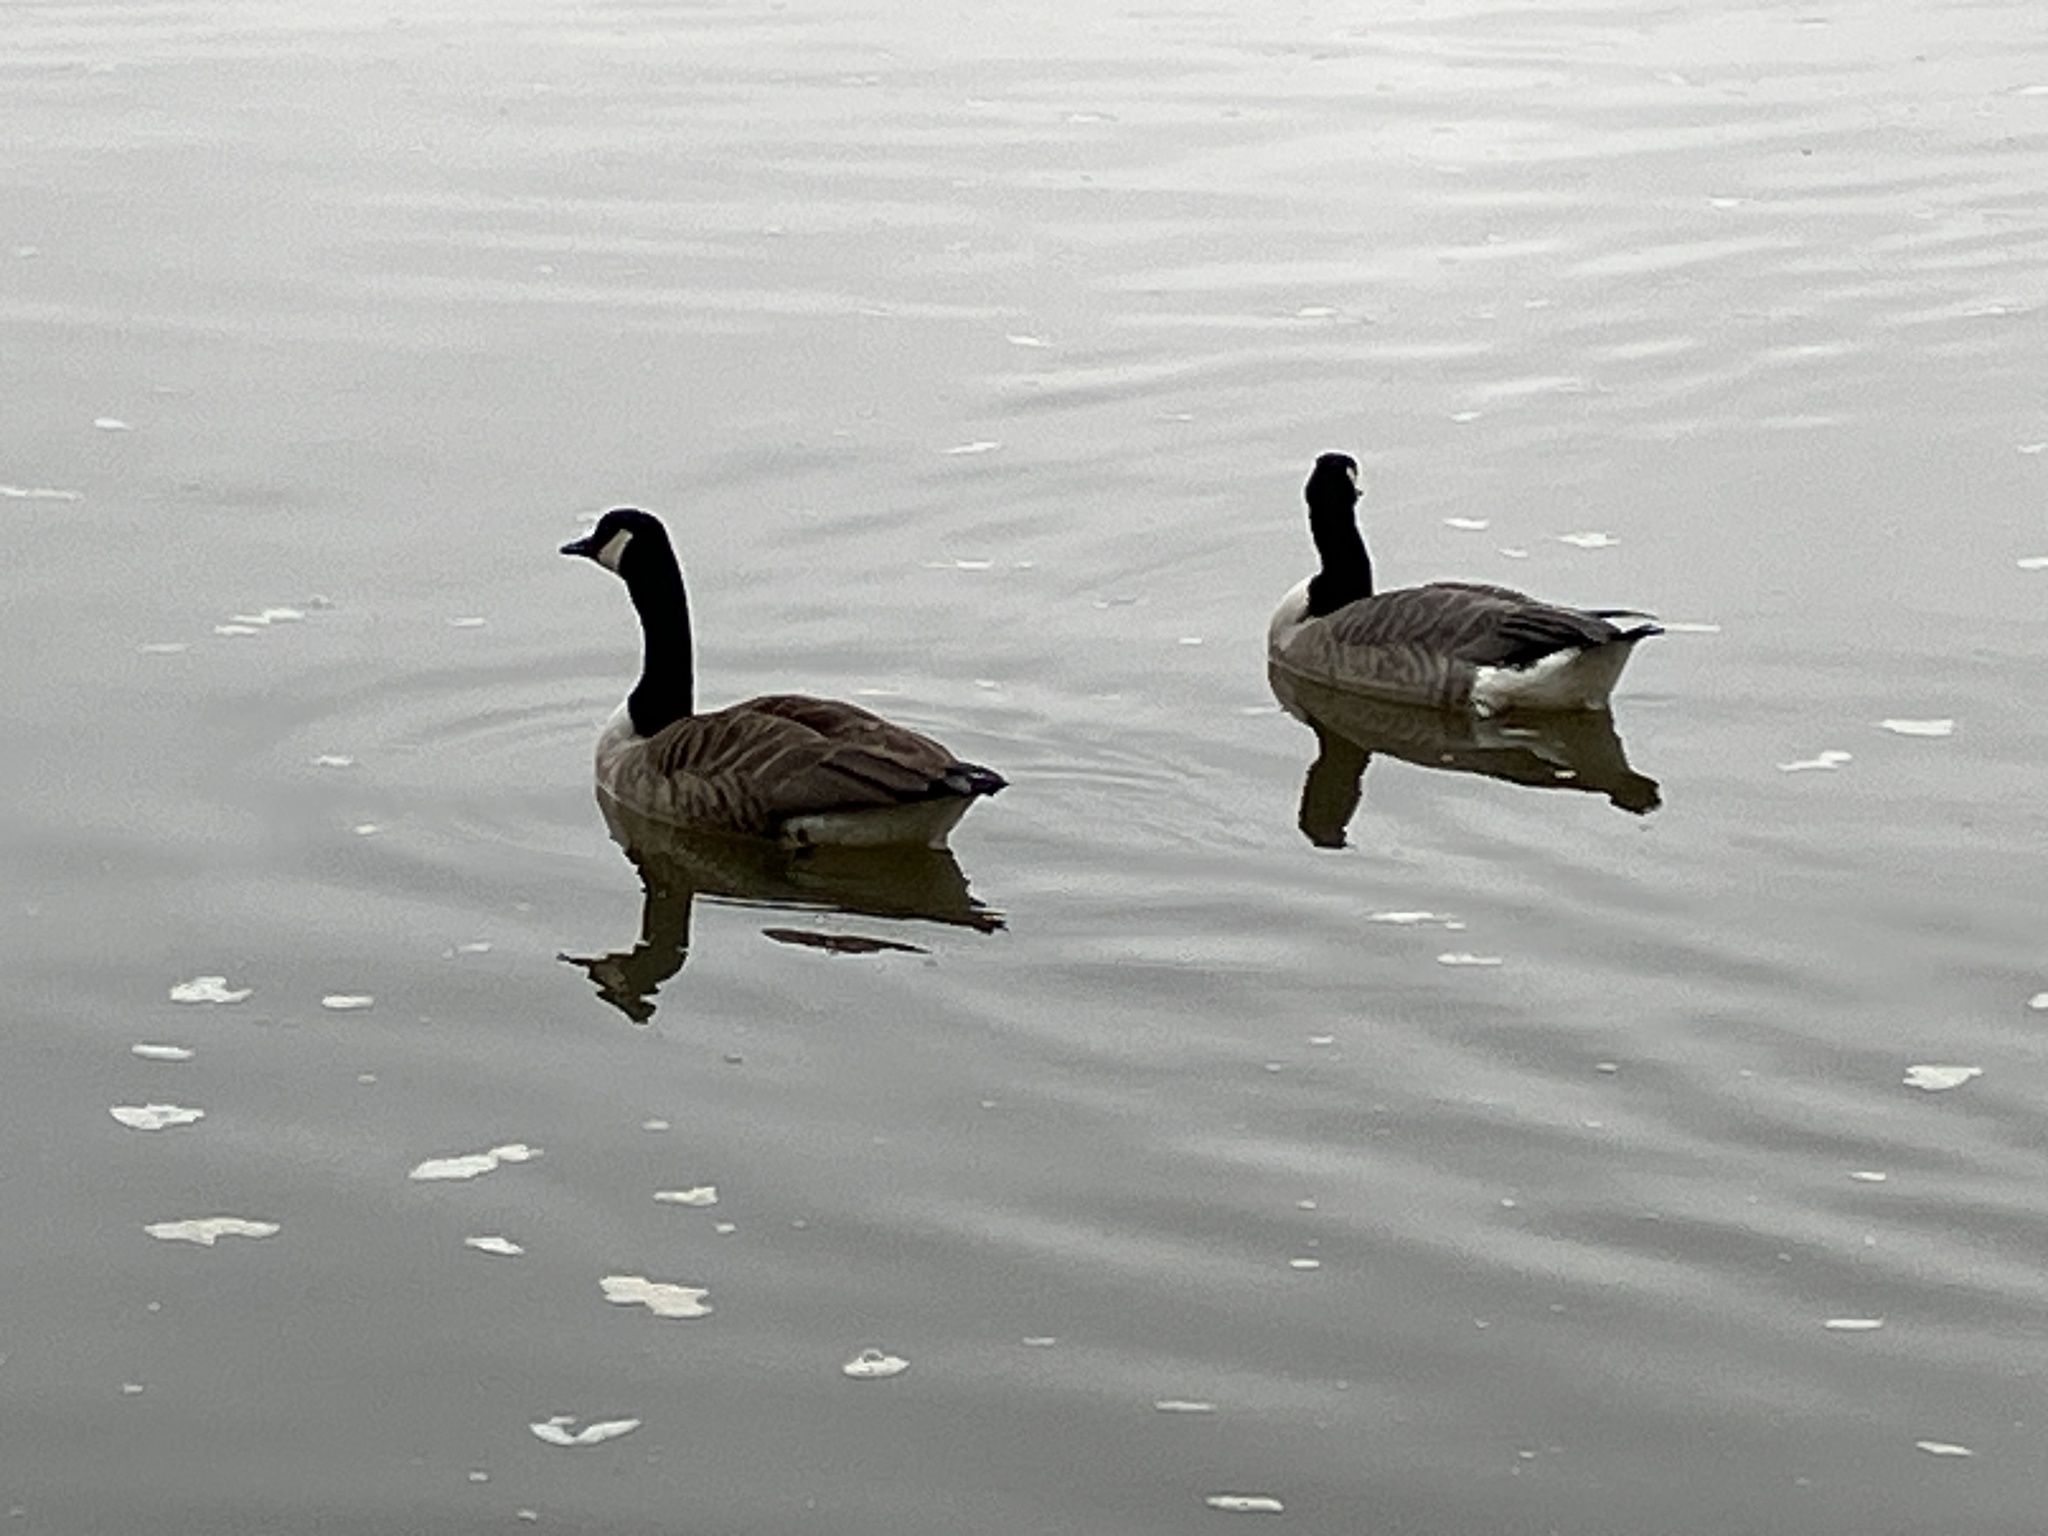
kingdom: Animalia
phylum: Chordata
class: Aves
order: Anseriformes
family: Anatidae
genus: Branta
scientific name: Branta canadensis
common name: Canada goose
